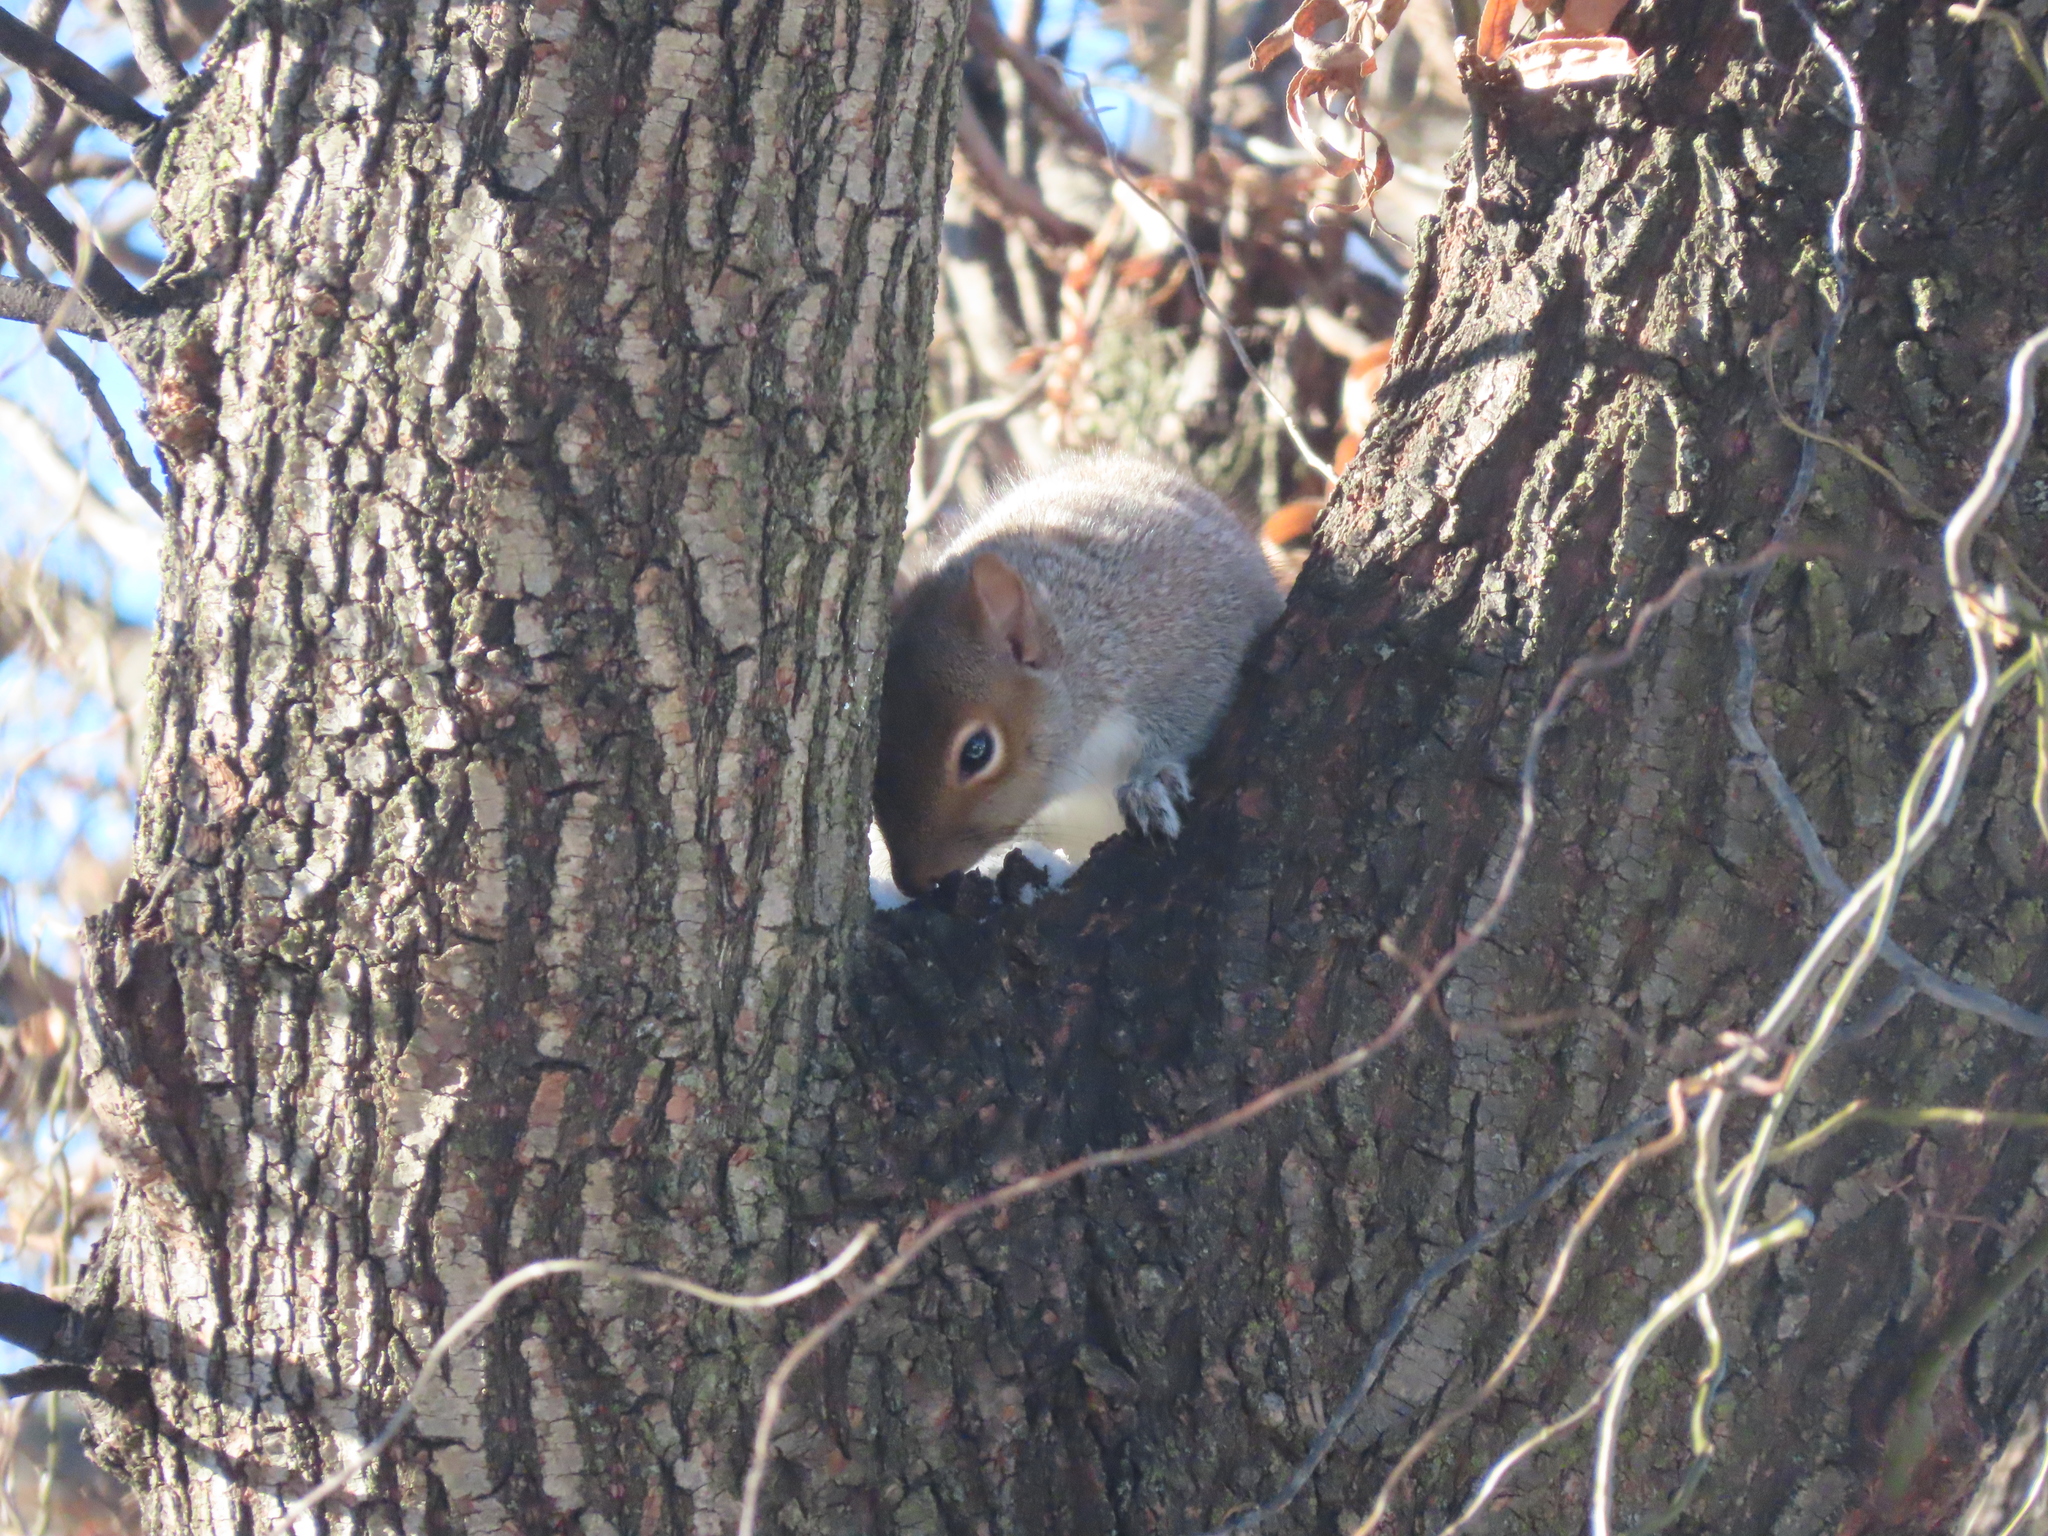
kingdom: Animalia
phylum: Chordata
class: Mammalia
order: Rodentia
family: Sciuridae
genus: Sciurus
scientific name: Sciurus carolinensis
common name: Eastern gray squirrel
